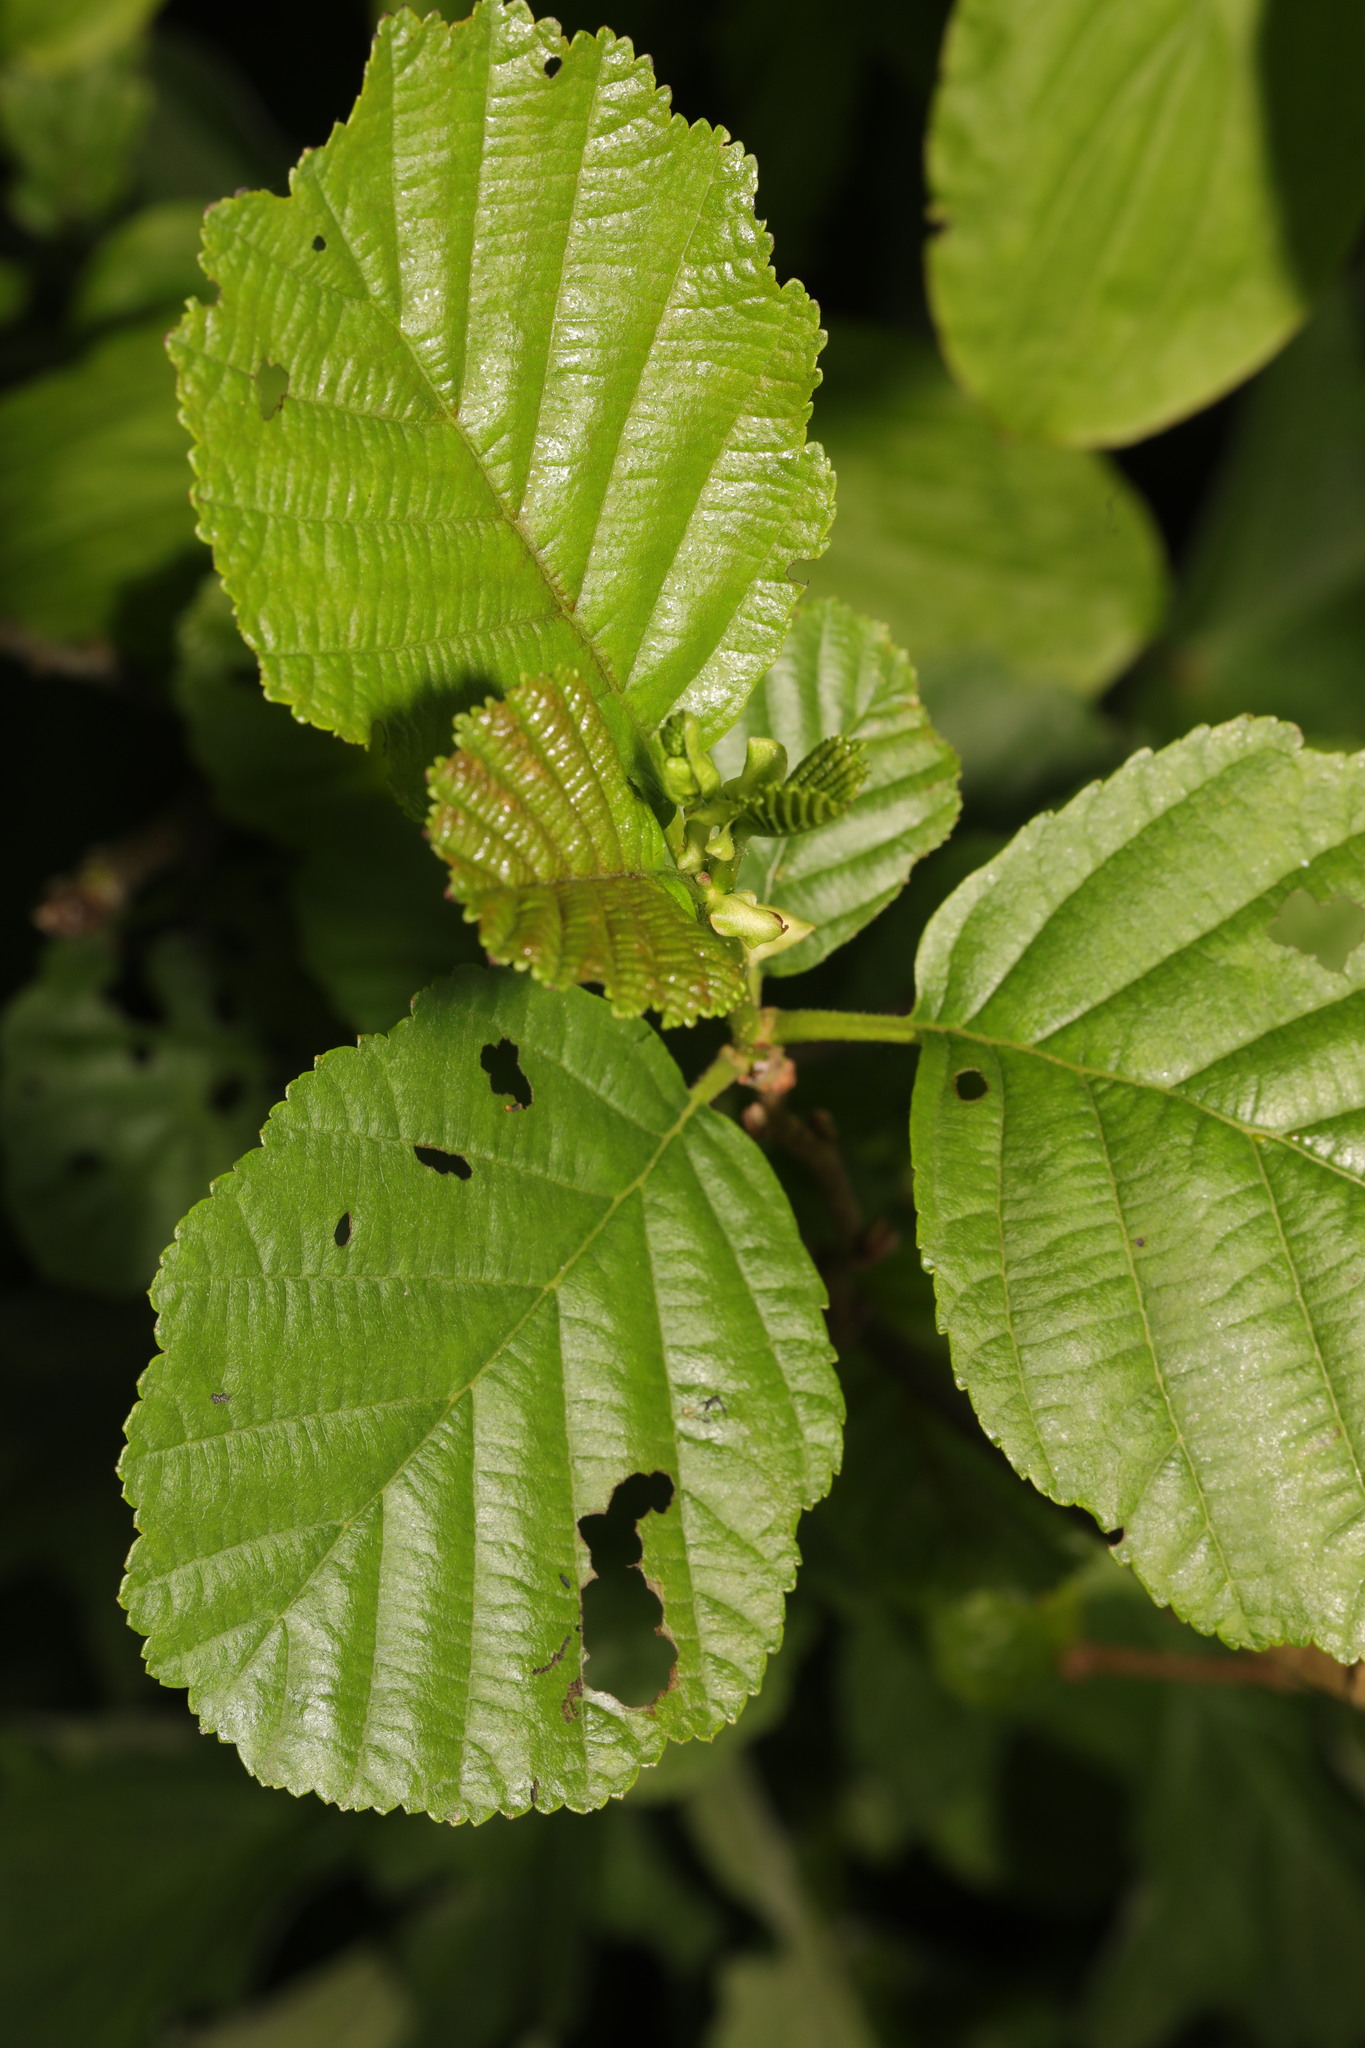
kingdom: Plantae
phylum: Tracheophyta
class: Magnoliopsida
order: Fagales
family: Betulaceae
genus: Alnus
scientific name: Alnus glutinosa
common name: Black alder
